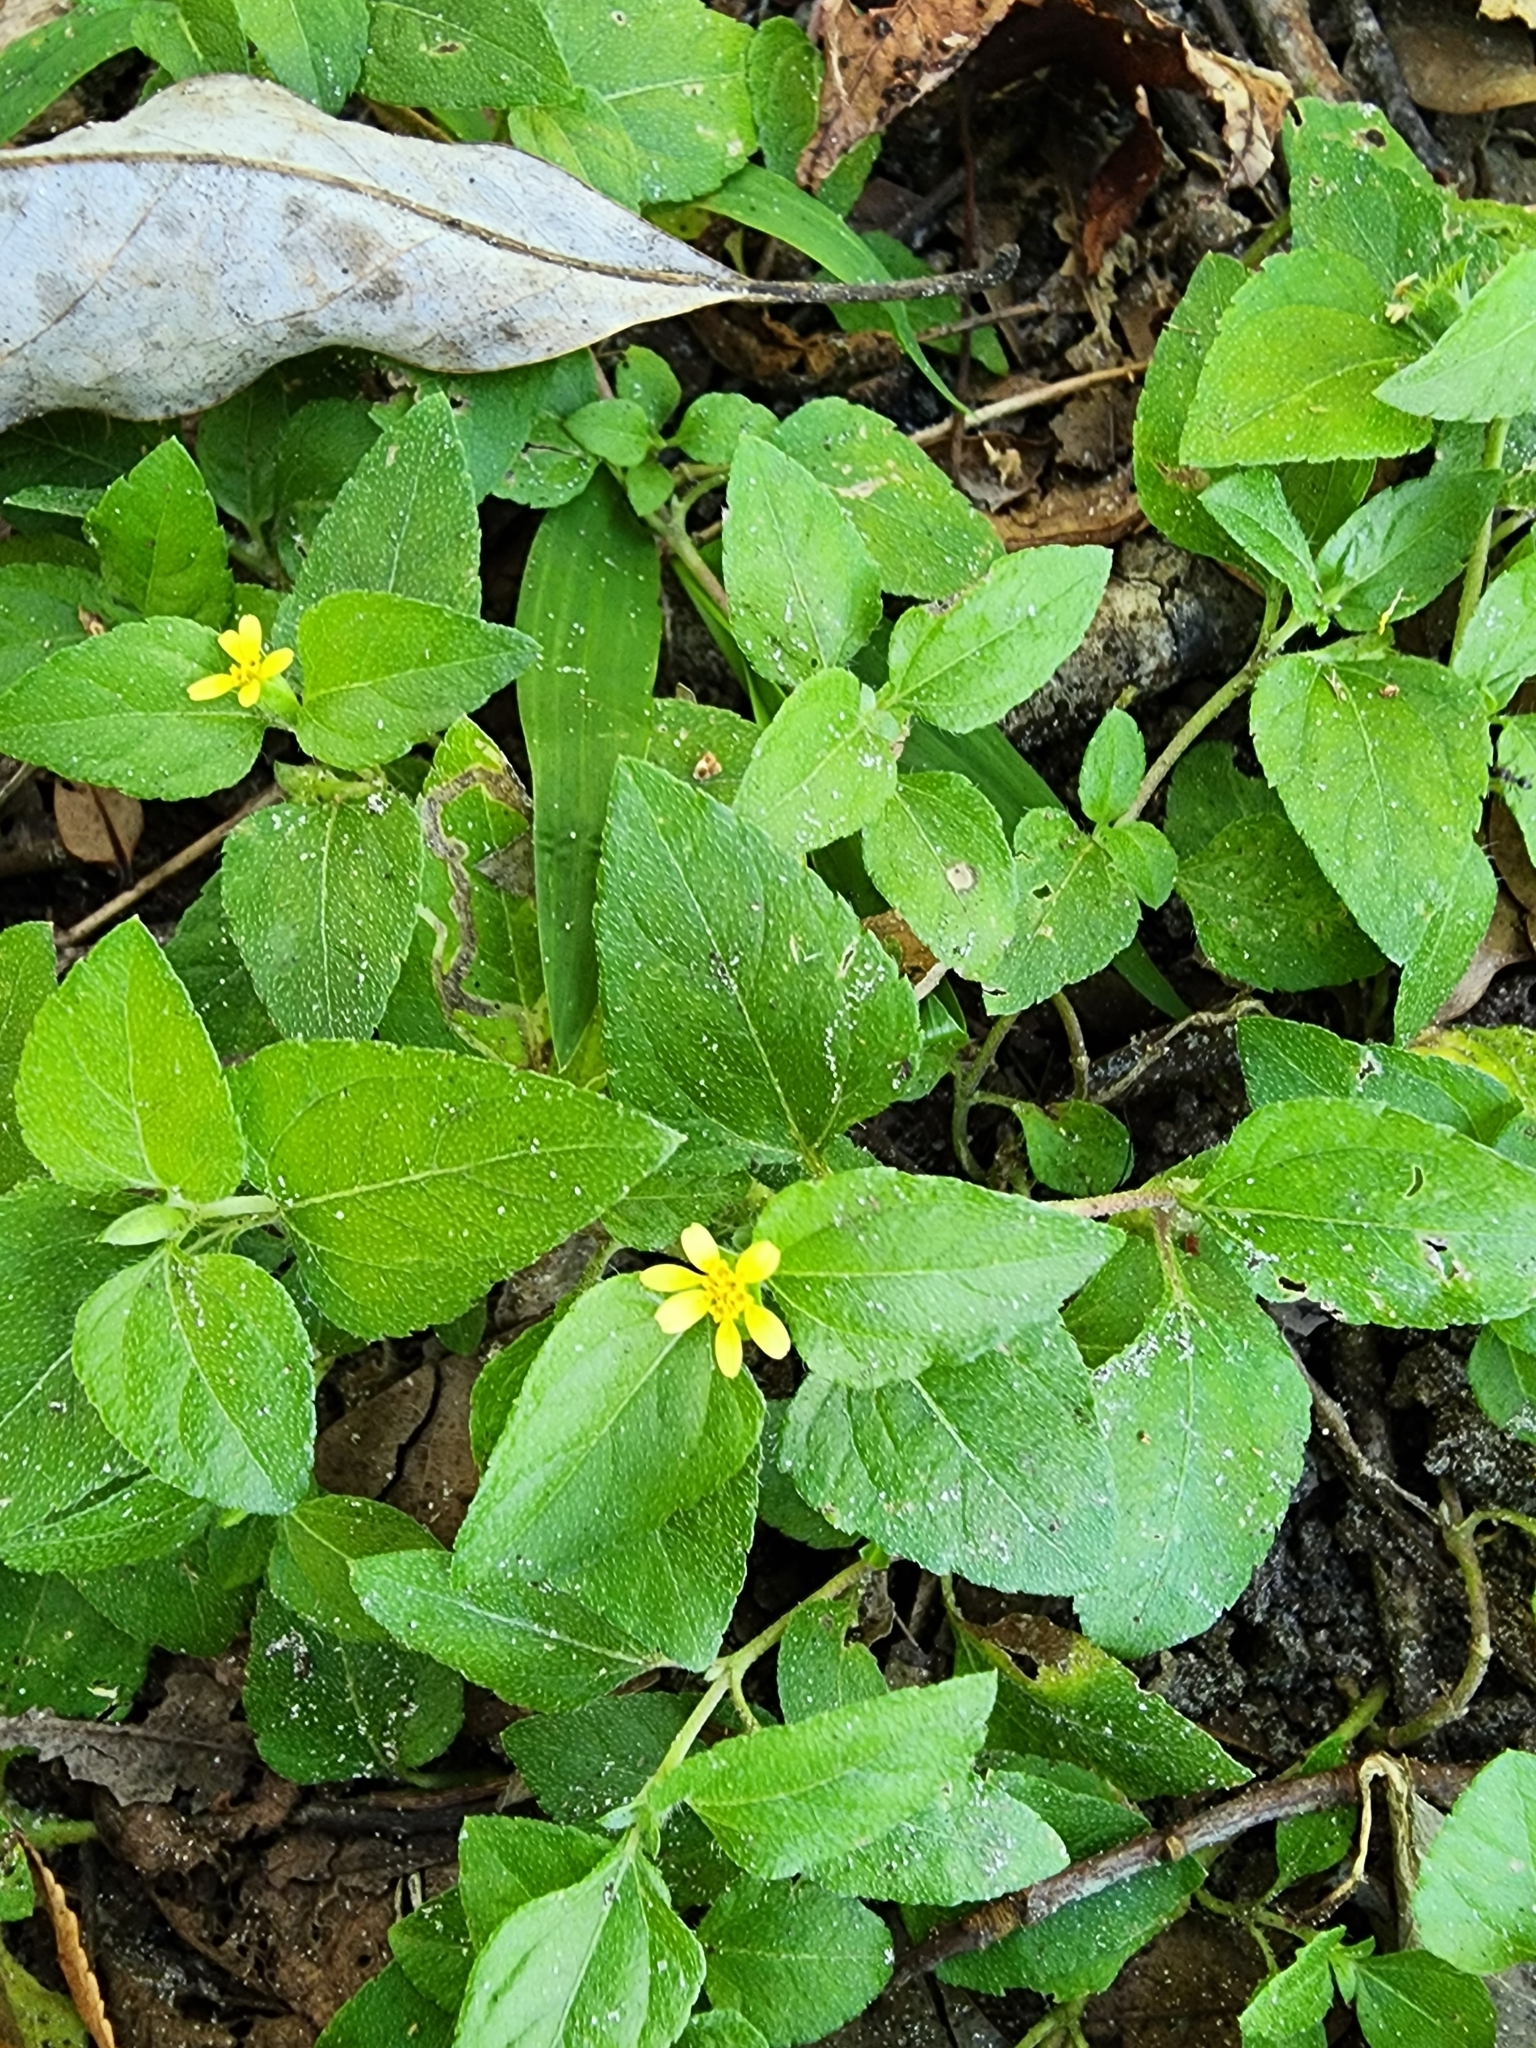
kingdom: Plantae
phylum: Tracheophyta
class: Magnoliopsida
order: Asterales
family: Asteraceae
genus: Calyptocarpus
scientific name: Calyptocarpus vialis
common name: Straggler daisy
